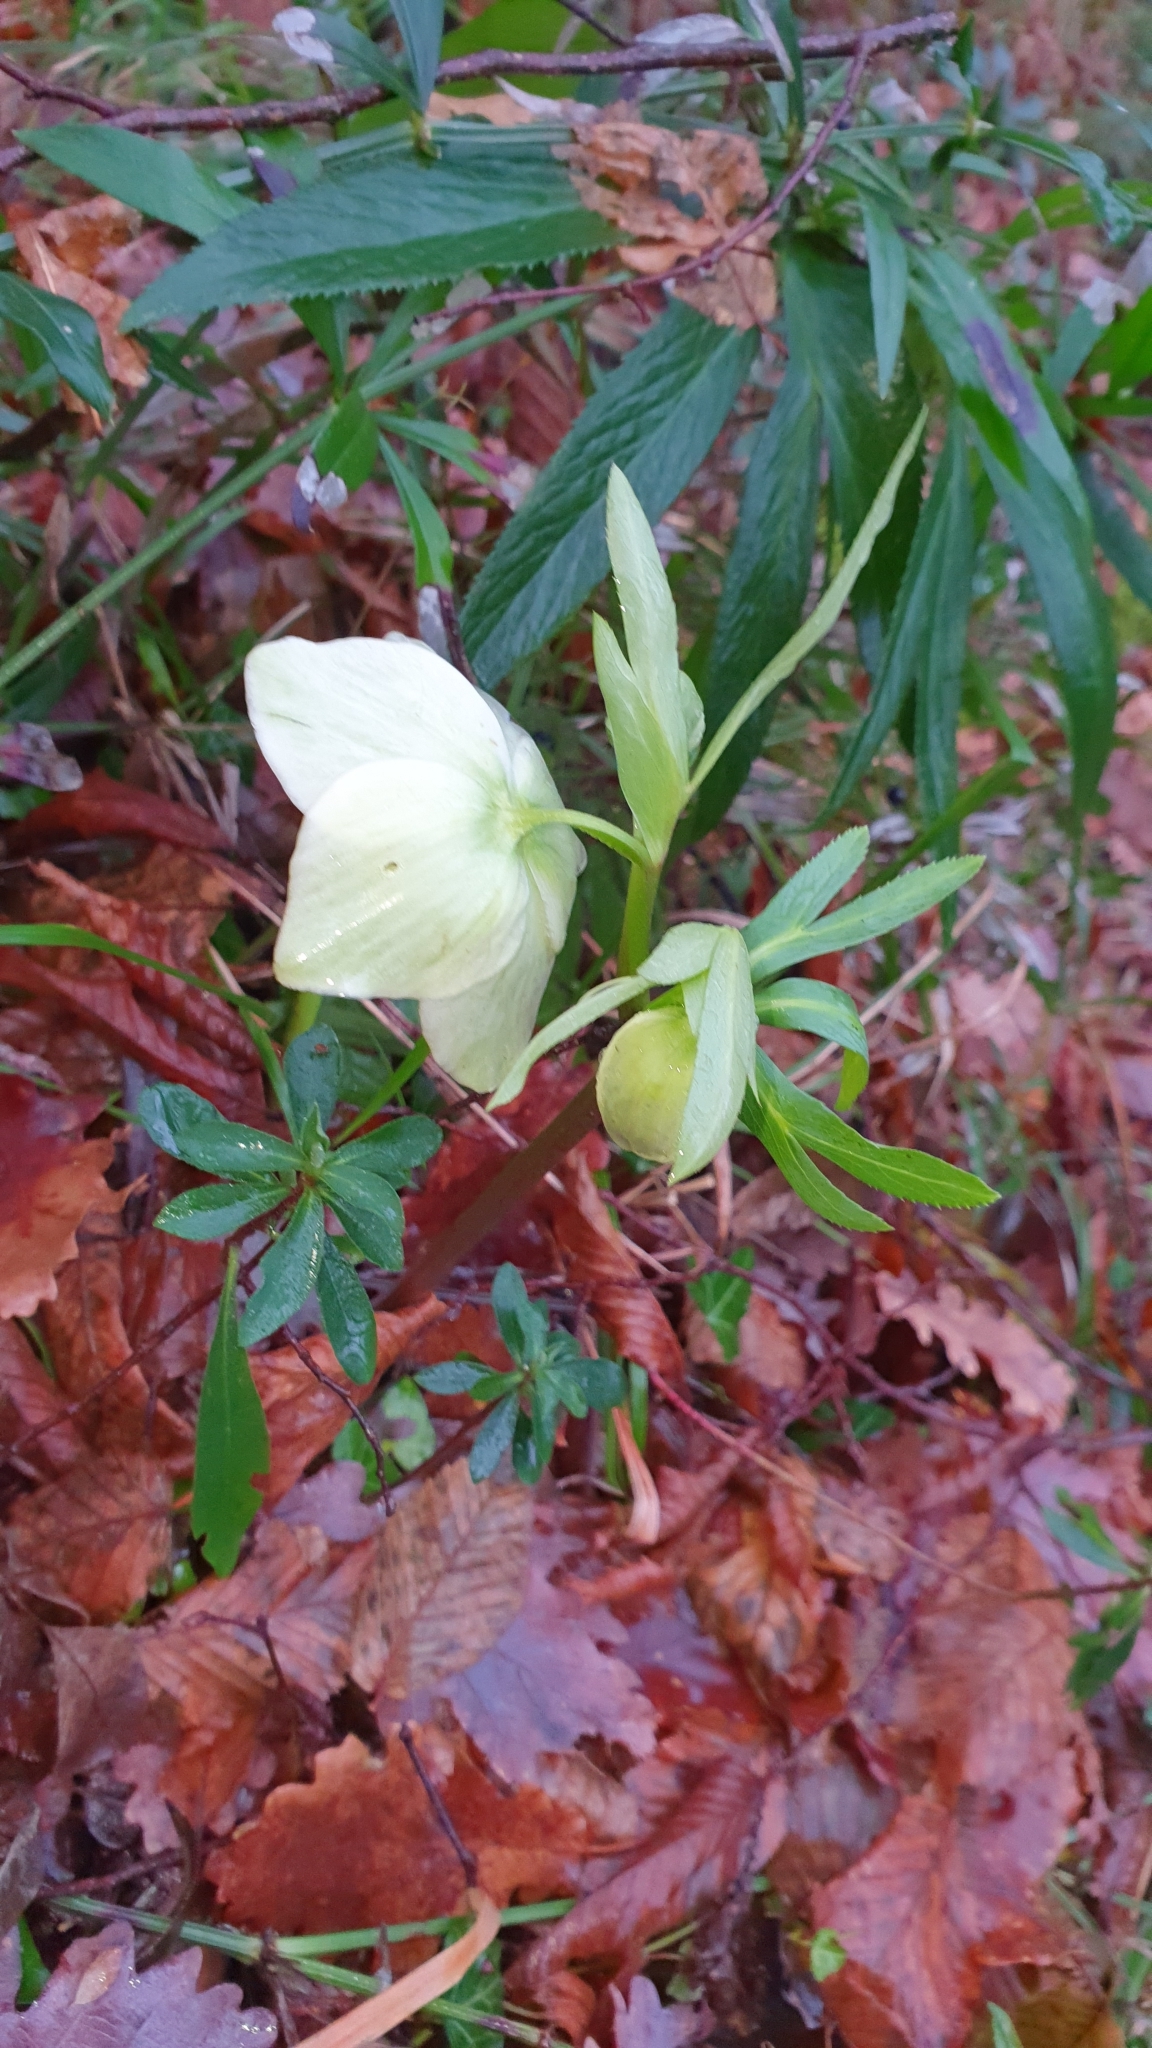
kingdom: Plantae
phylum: Tracheophyta
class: Magnoliopsida
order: Ranunculales
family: Ranunculaceae
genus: Helleborus
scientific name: Helleborus viridis
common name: Green hellebore
